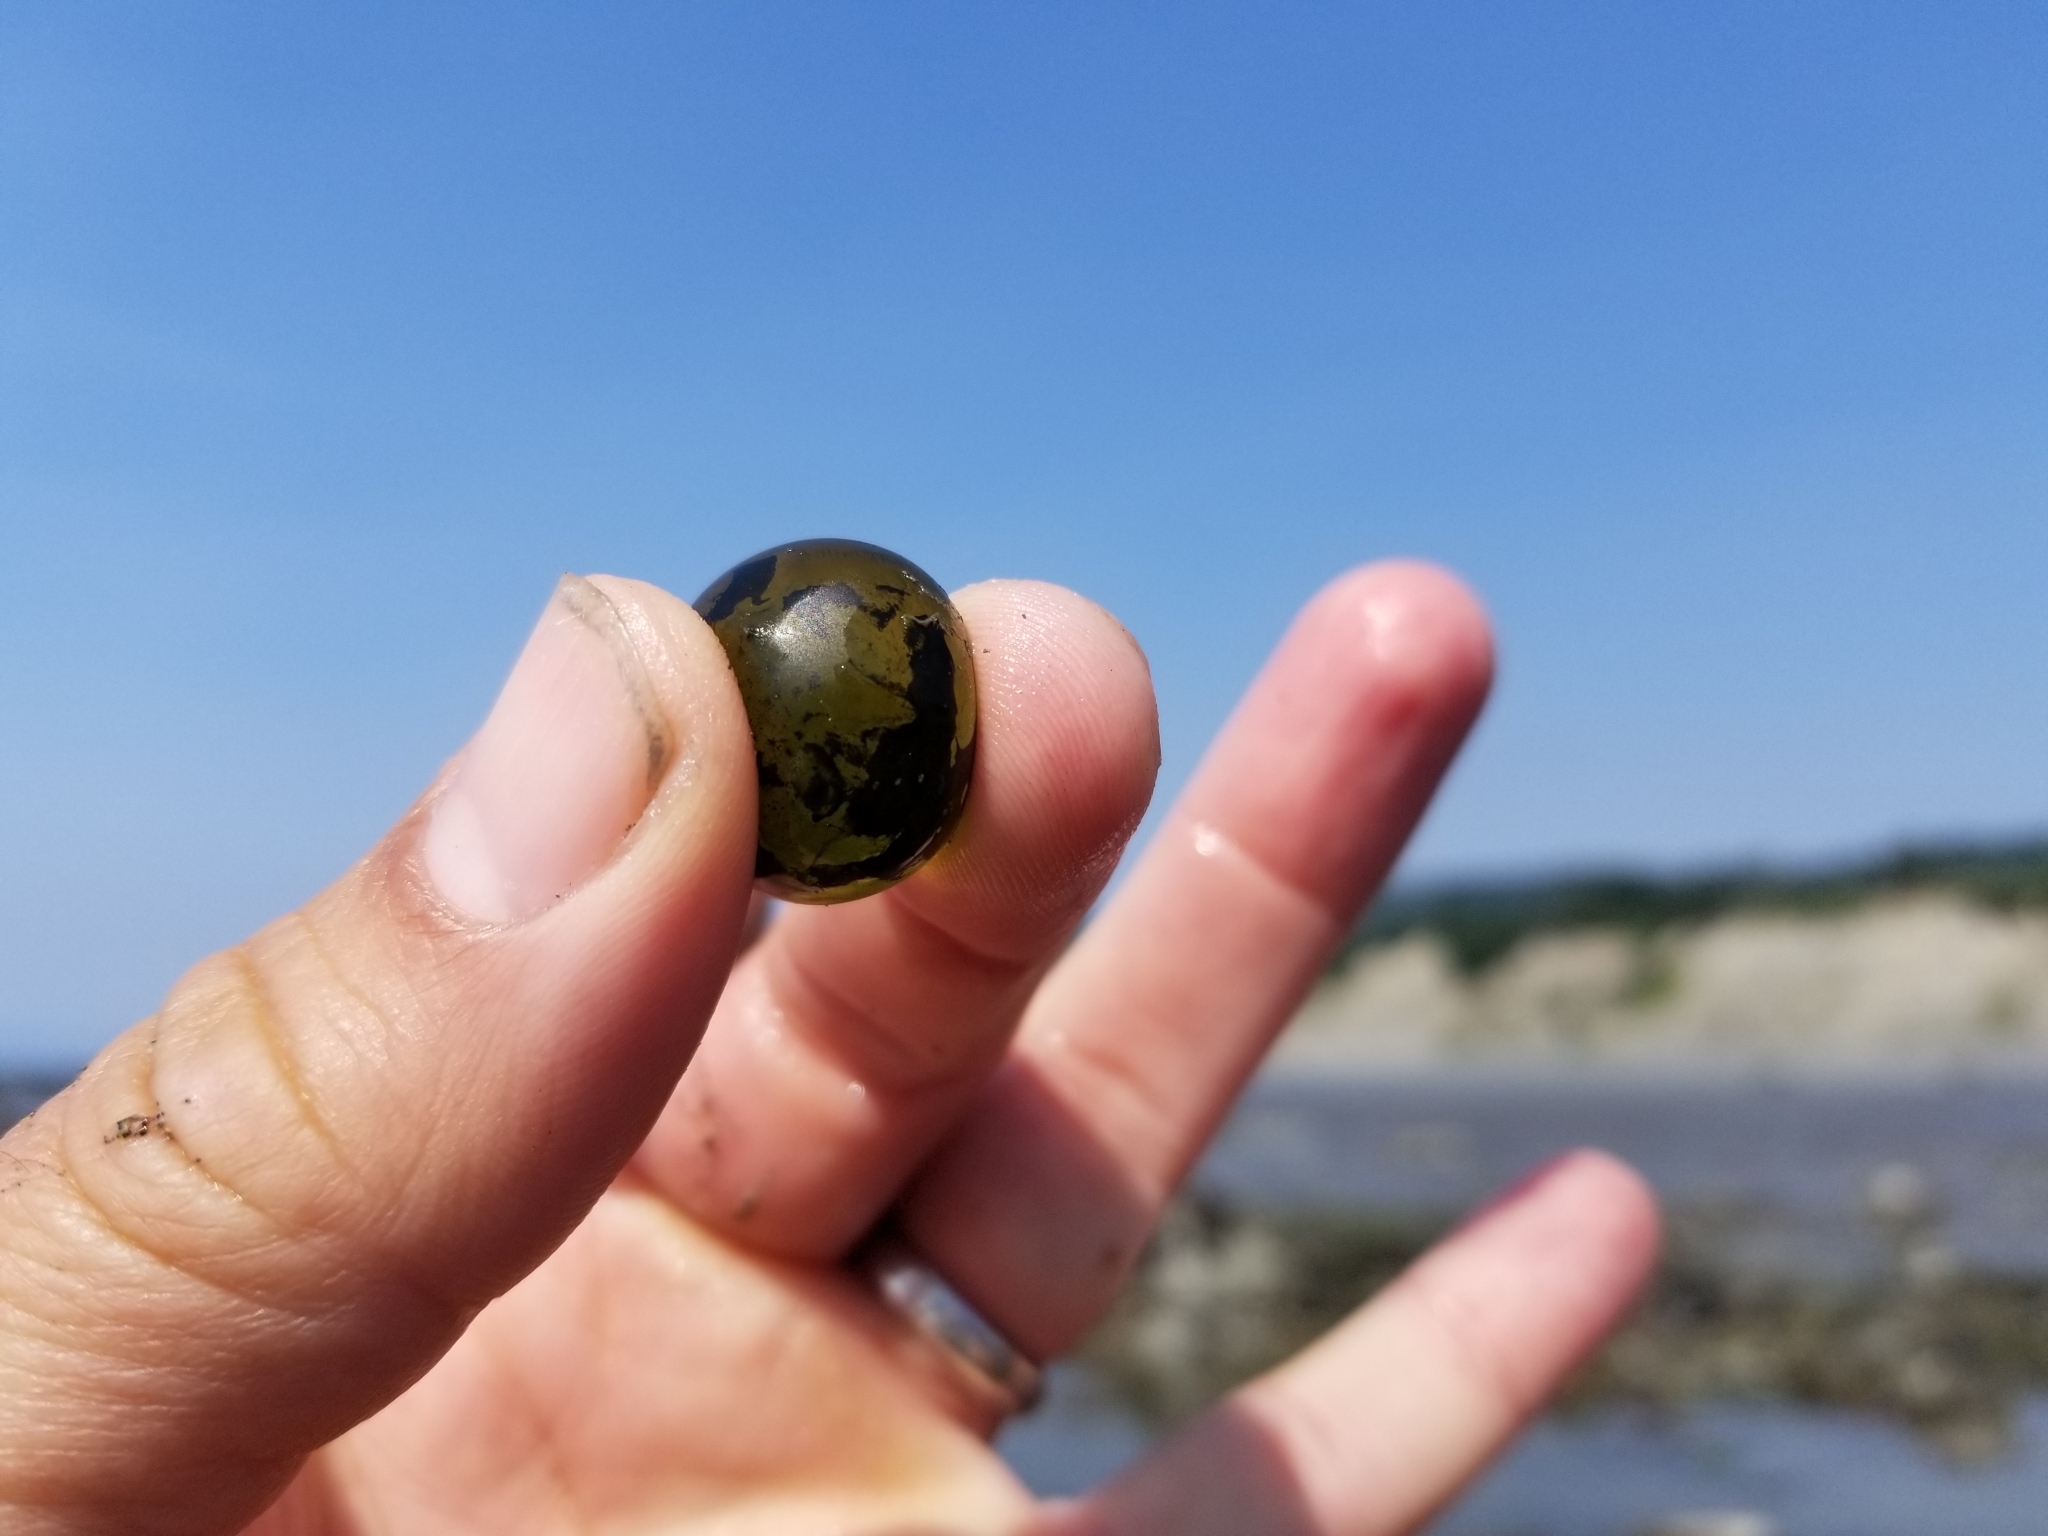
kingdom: Plantae
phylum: Chlorophyta
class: Ulvophyceae
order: Bryopsidales
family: Derbesiaceae
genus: Derbesia
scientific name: Derbesia marina
